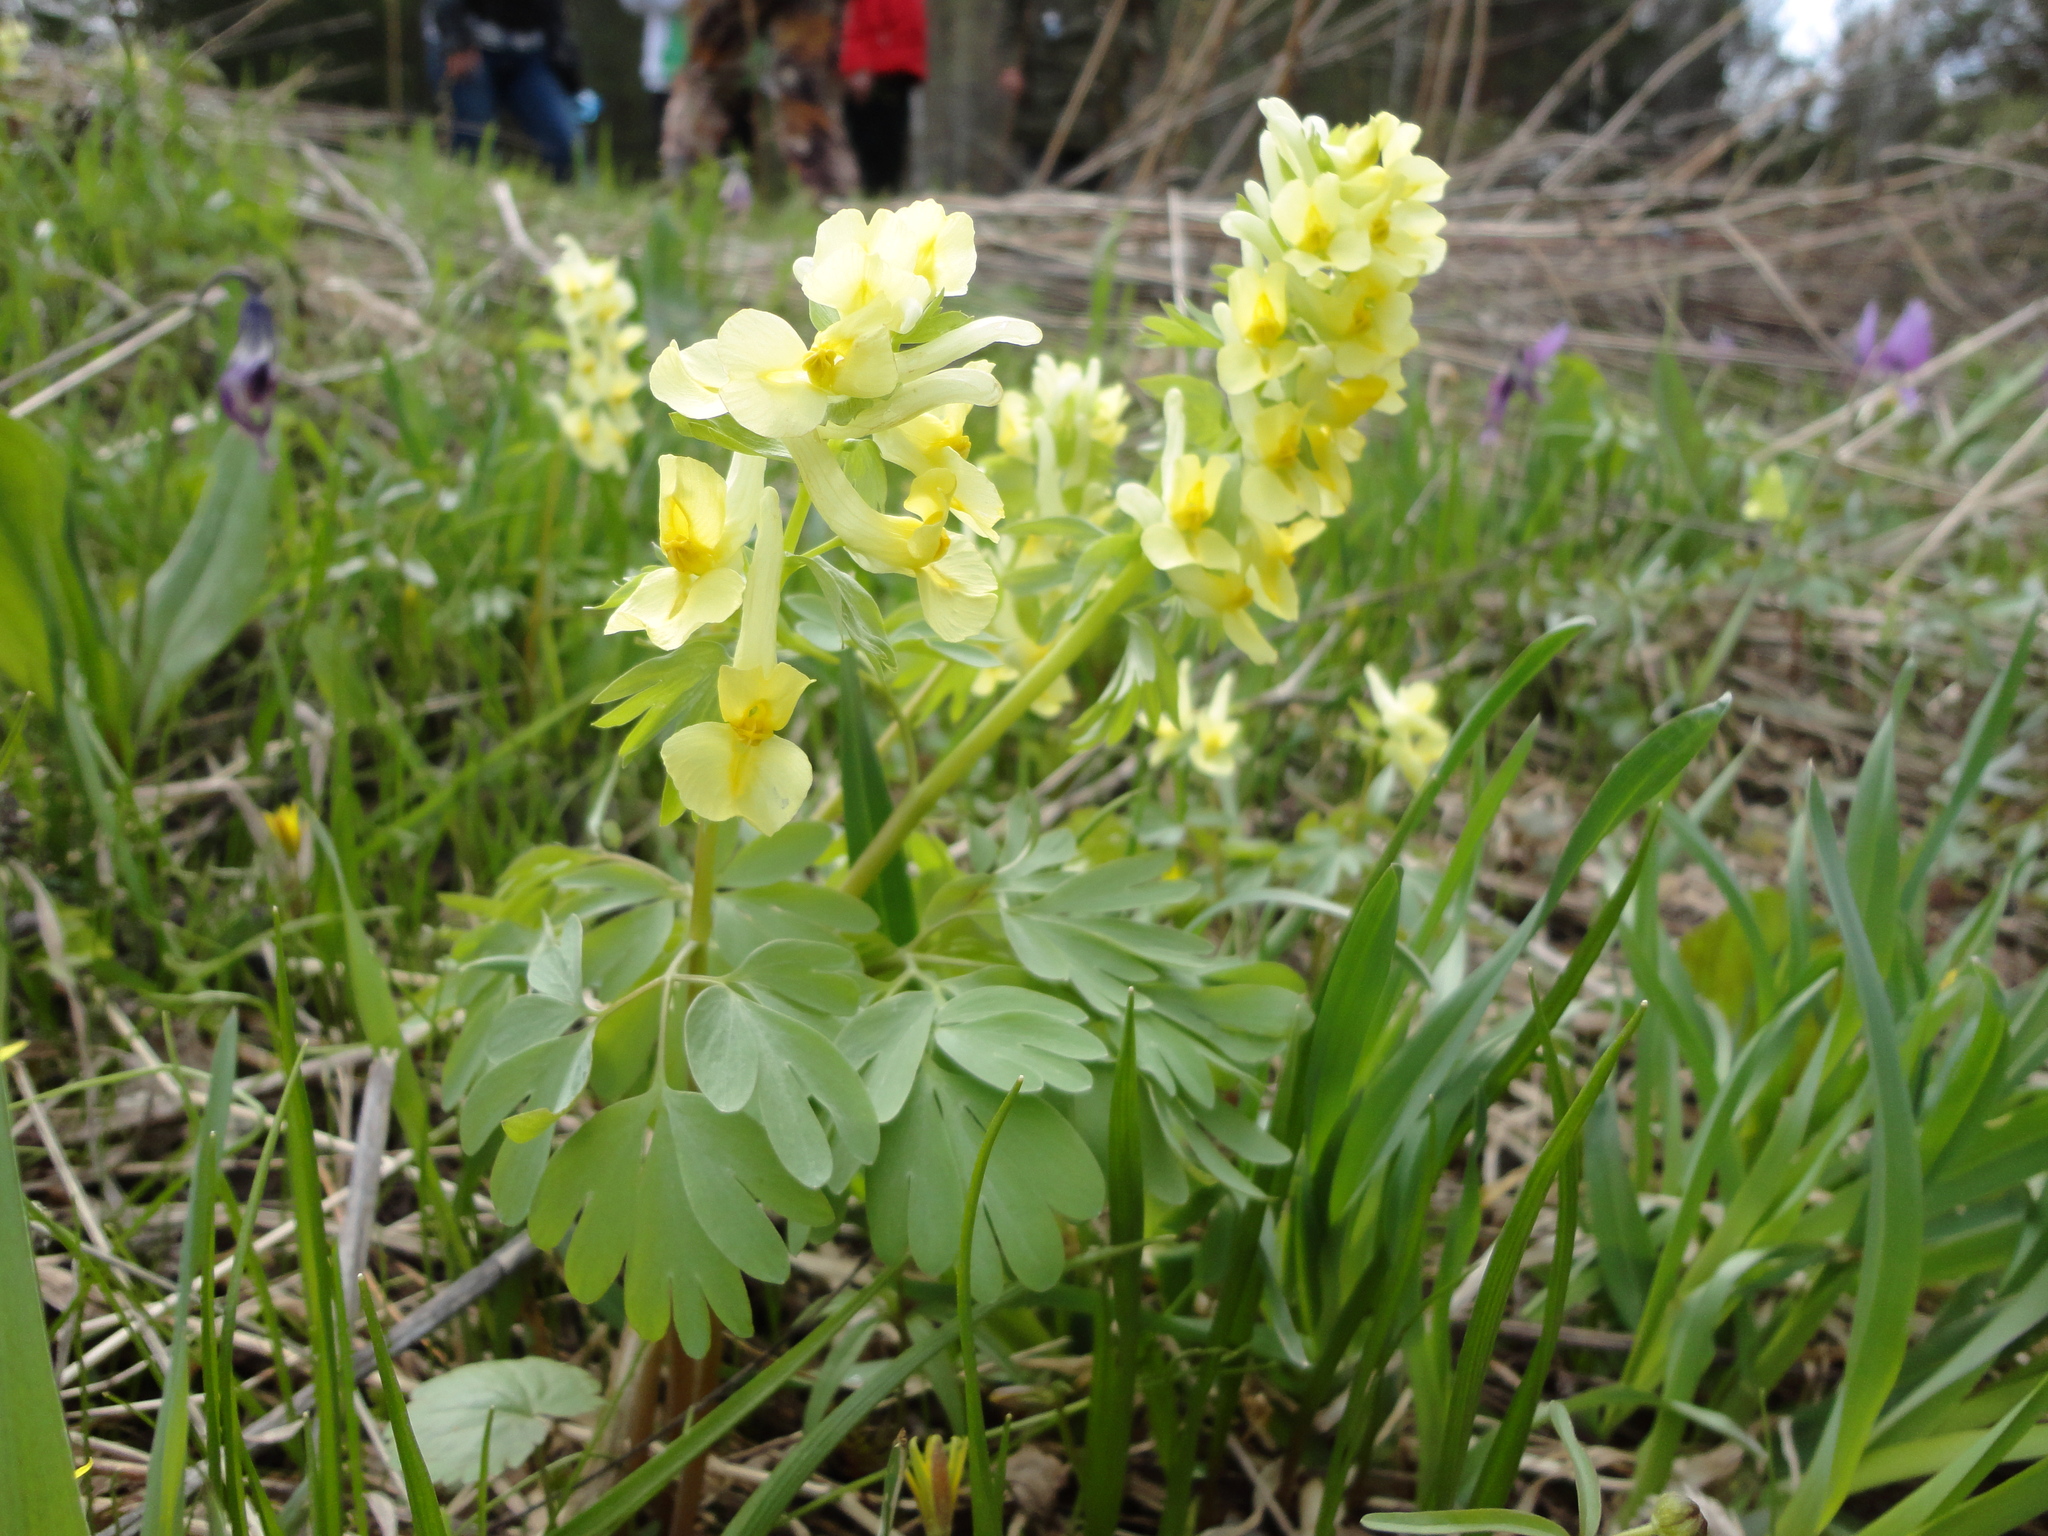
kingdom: Plantae
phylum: Tracheophyta
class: Magnoliopsida
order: Ranunculales
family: Papaveraceae
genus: Corydalis
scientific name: Corydalis bracteata
